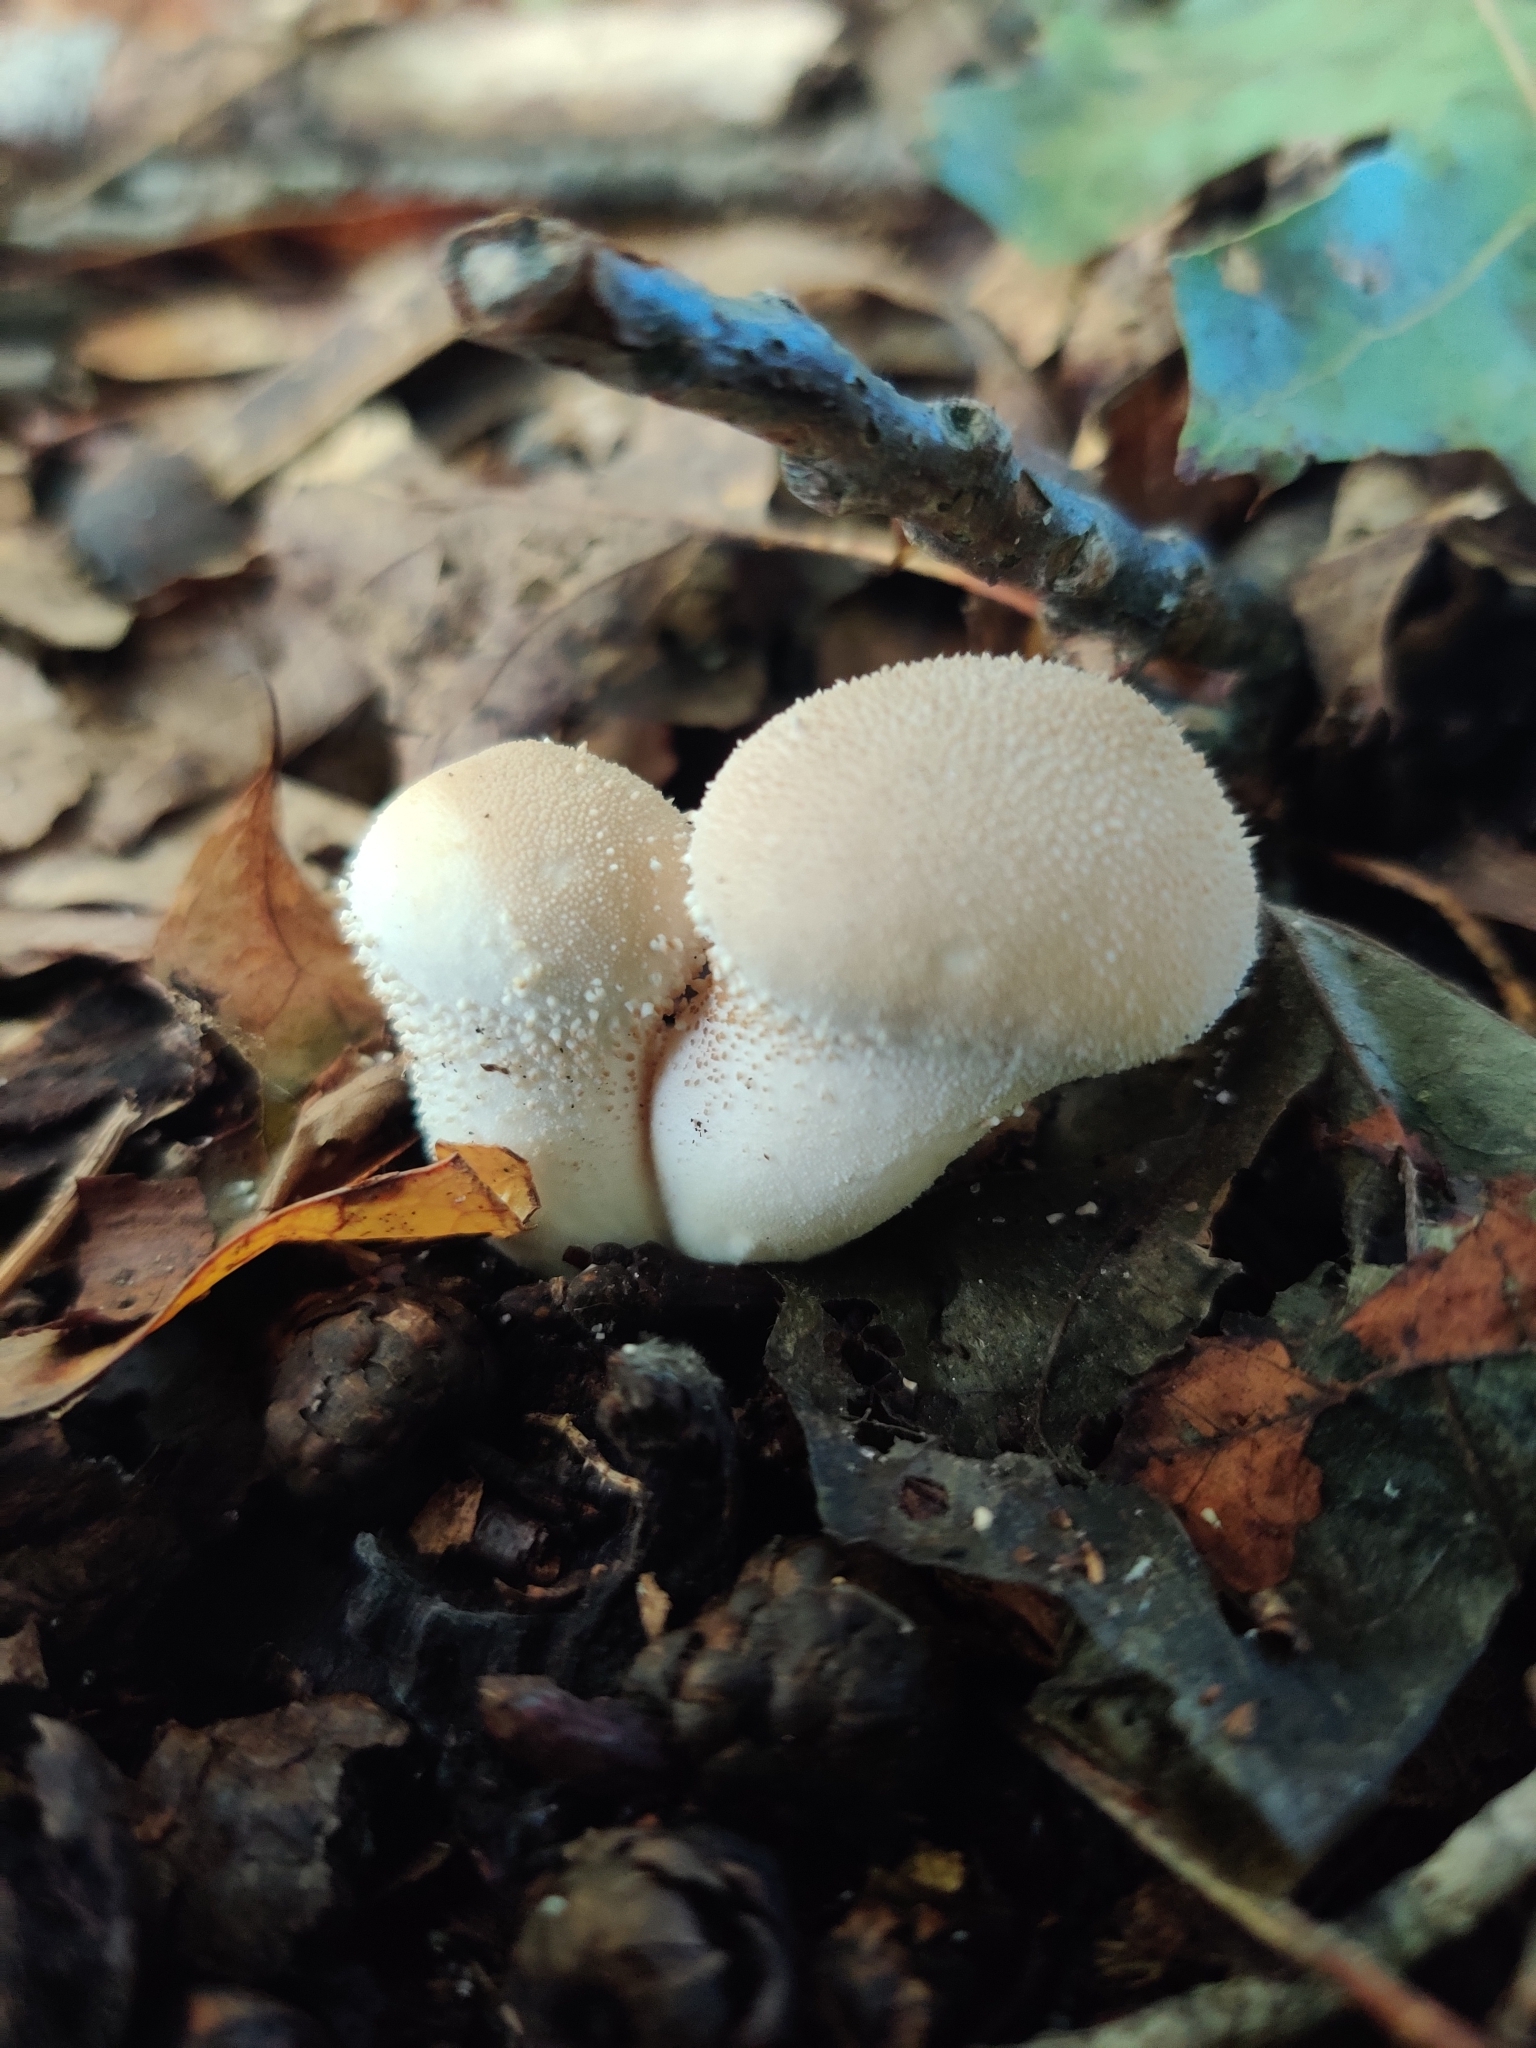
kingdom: Fungi
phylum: Basidiomycota
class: Agaricomycetes
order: Agaricales
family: Lycoperdaceae
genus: Lycoperdon
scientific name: Lycoperdon perlatum
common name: Common puffball
